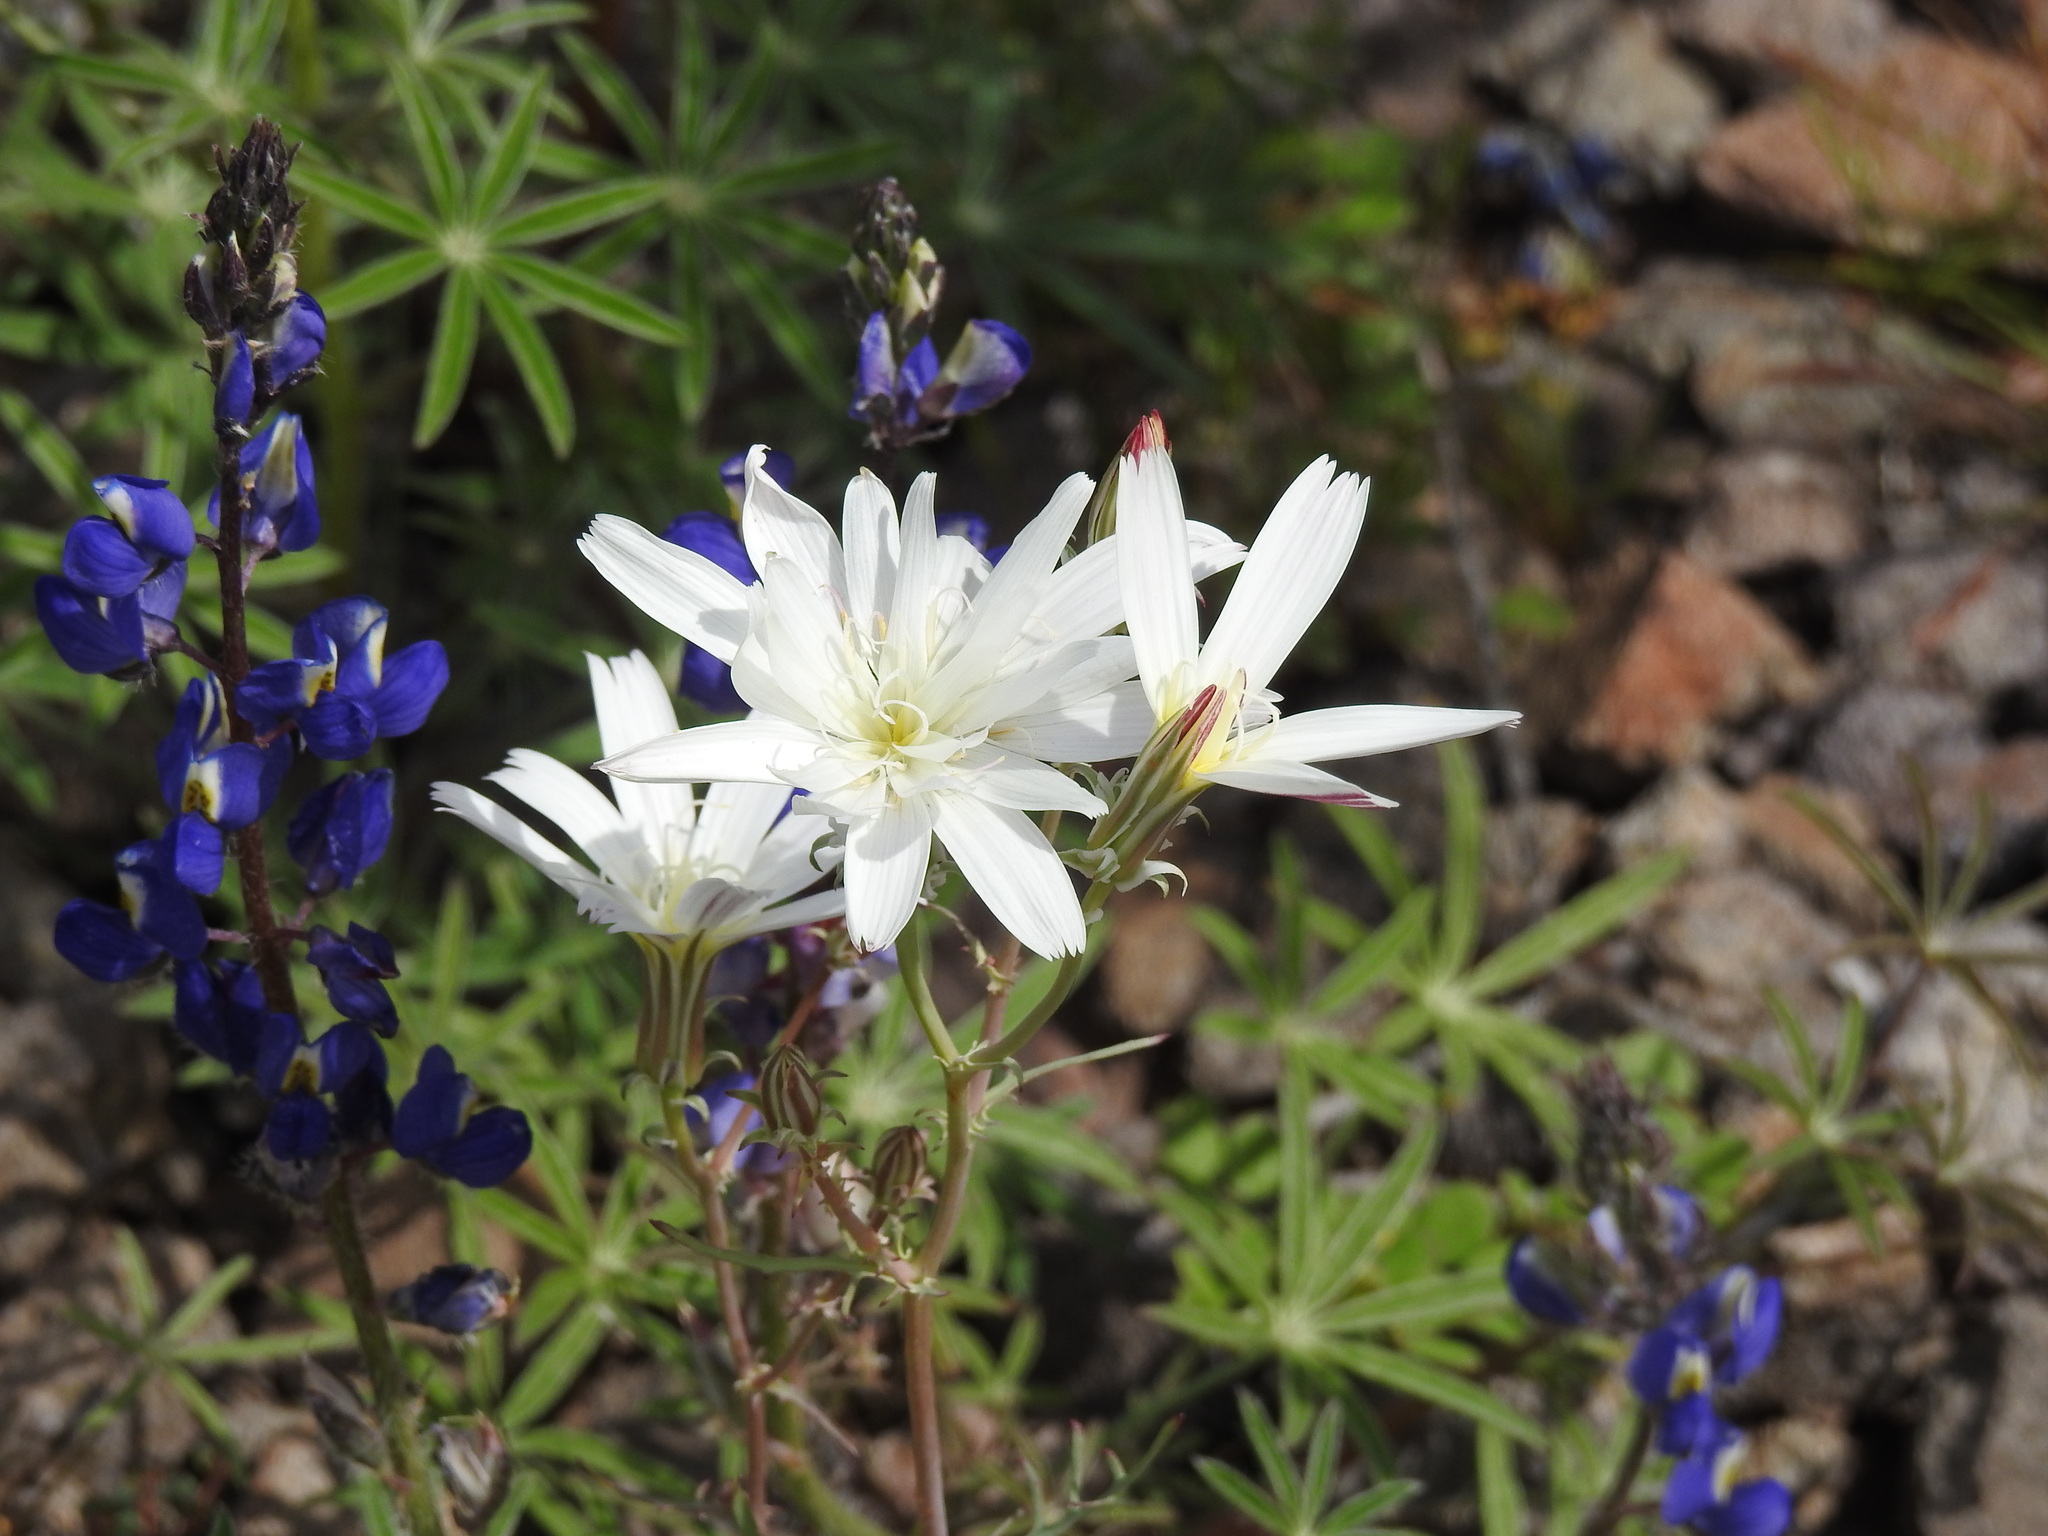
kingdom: Plantae
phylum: Tracheophyta
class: Magnoliopsida
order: Asterales
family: Asteraceae
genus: Rafinesquia
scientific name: Rafinesquia neomexicana
